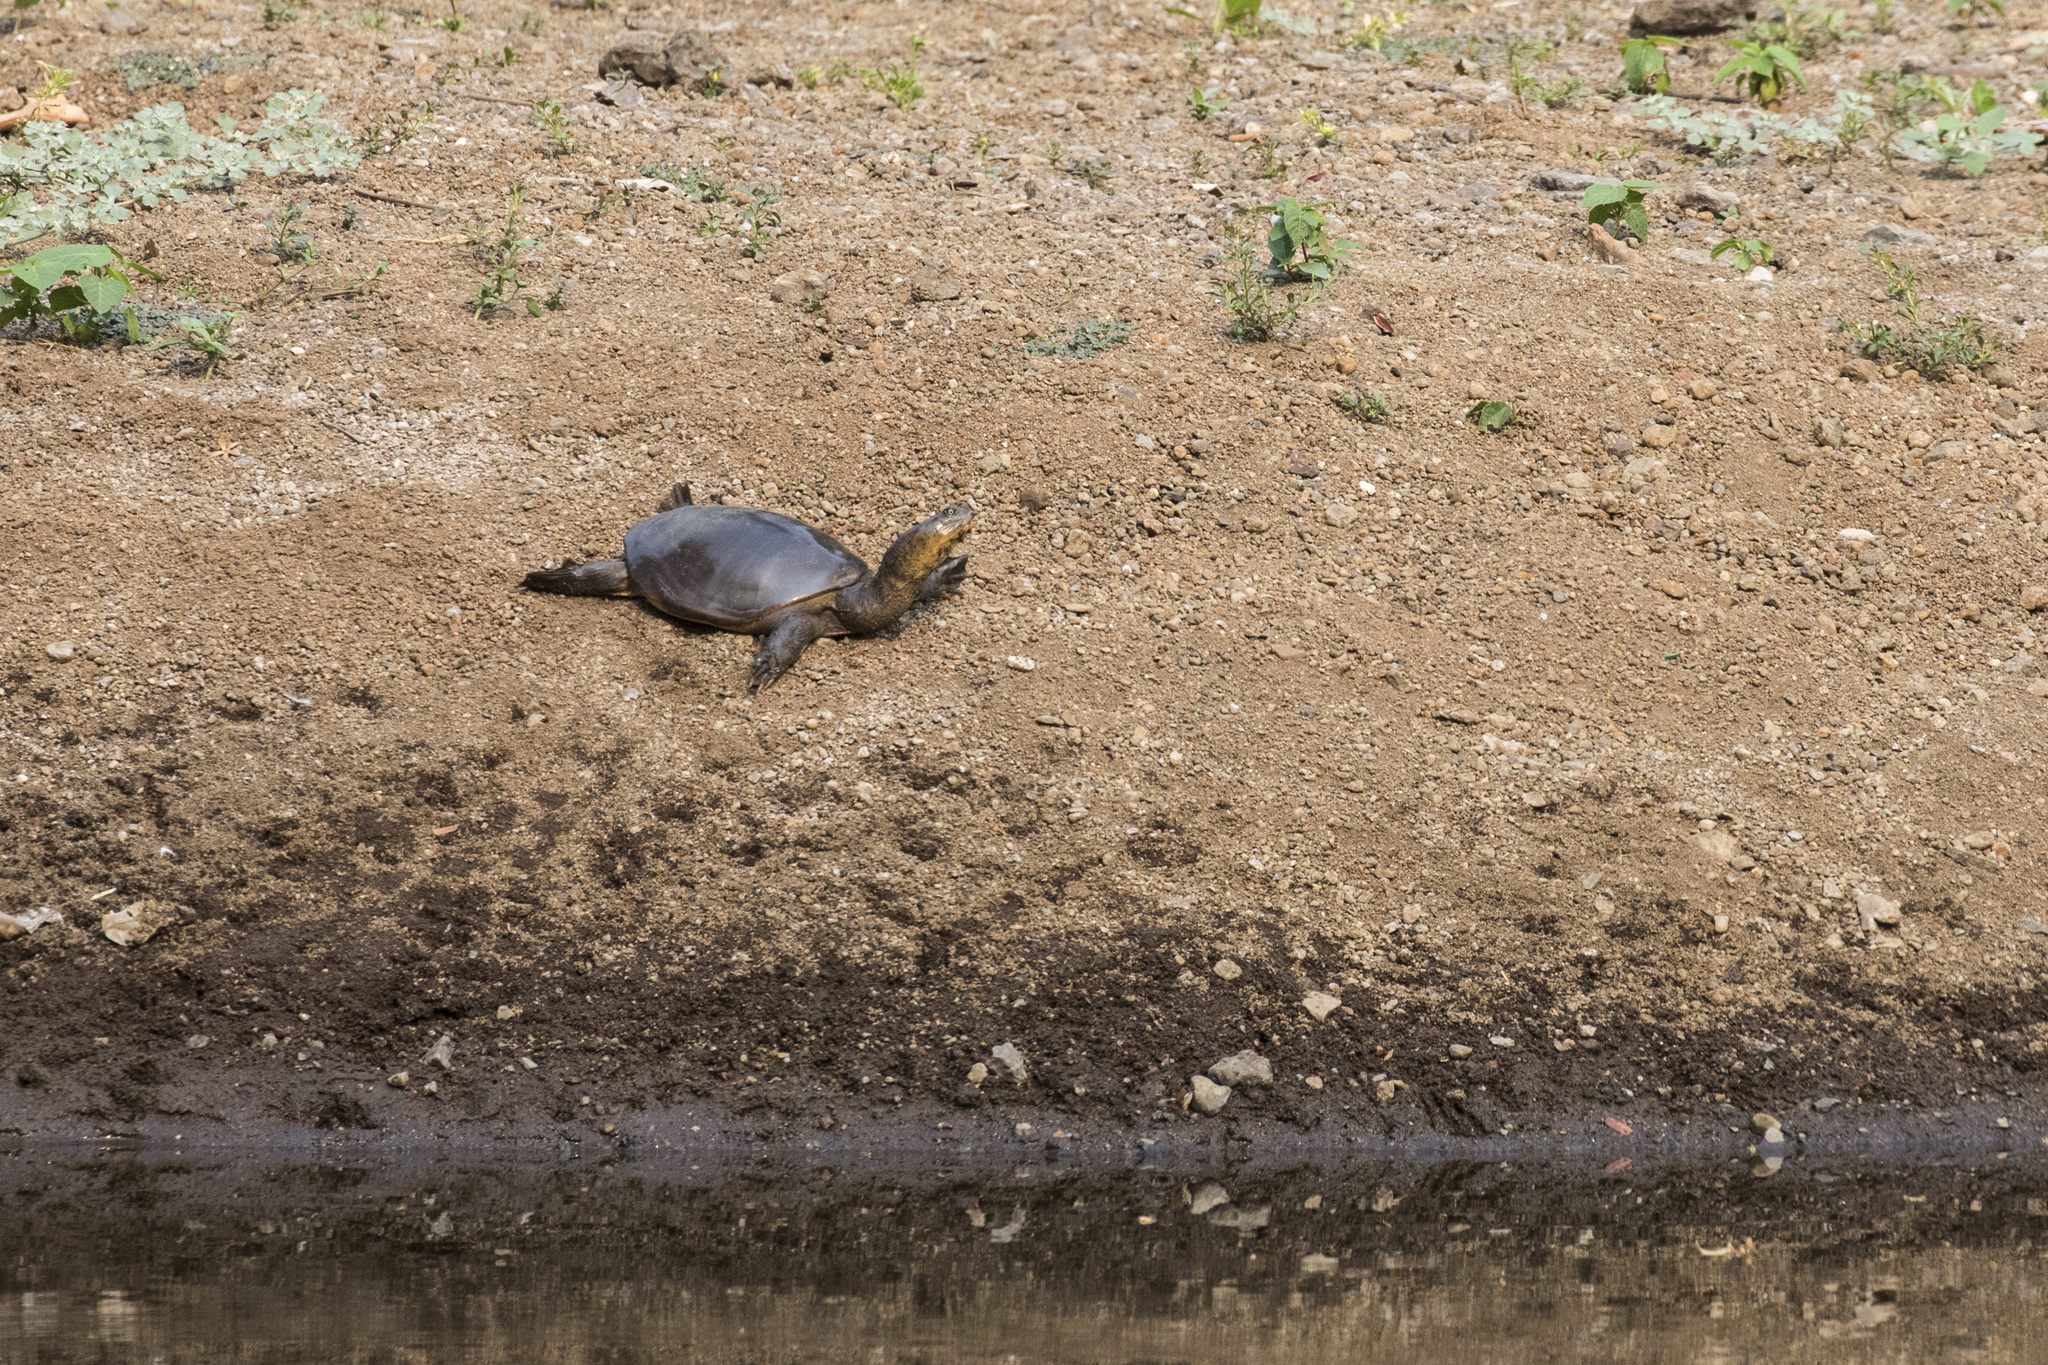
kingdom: Animalia
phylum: Chordata
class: Testudines
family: Trionychidae
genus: Lissemys
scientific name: Lissemys punctata
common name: Indian flap-shelled turtle
